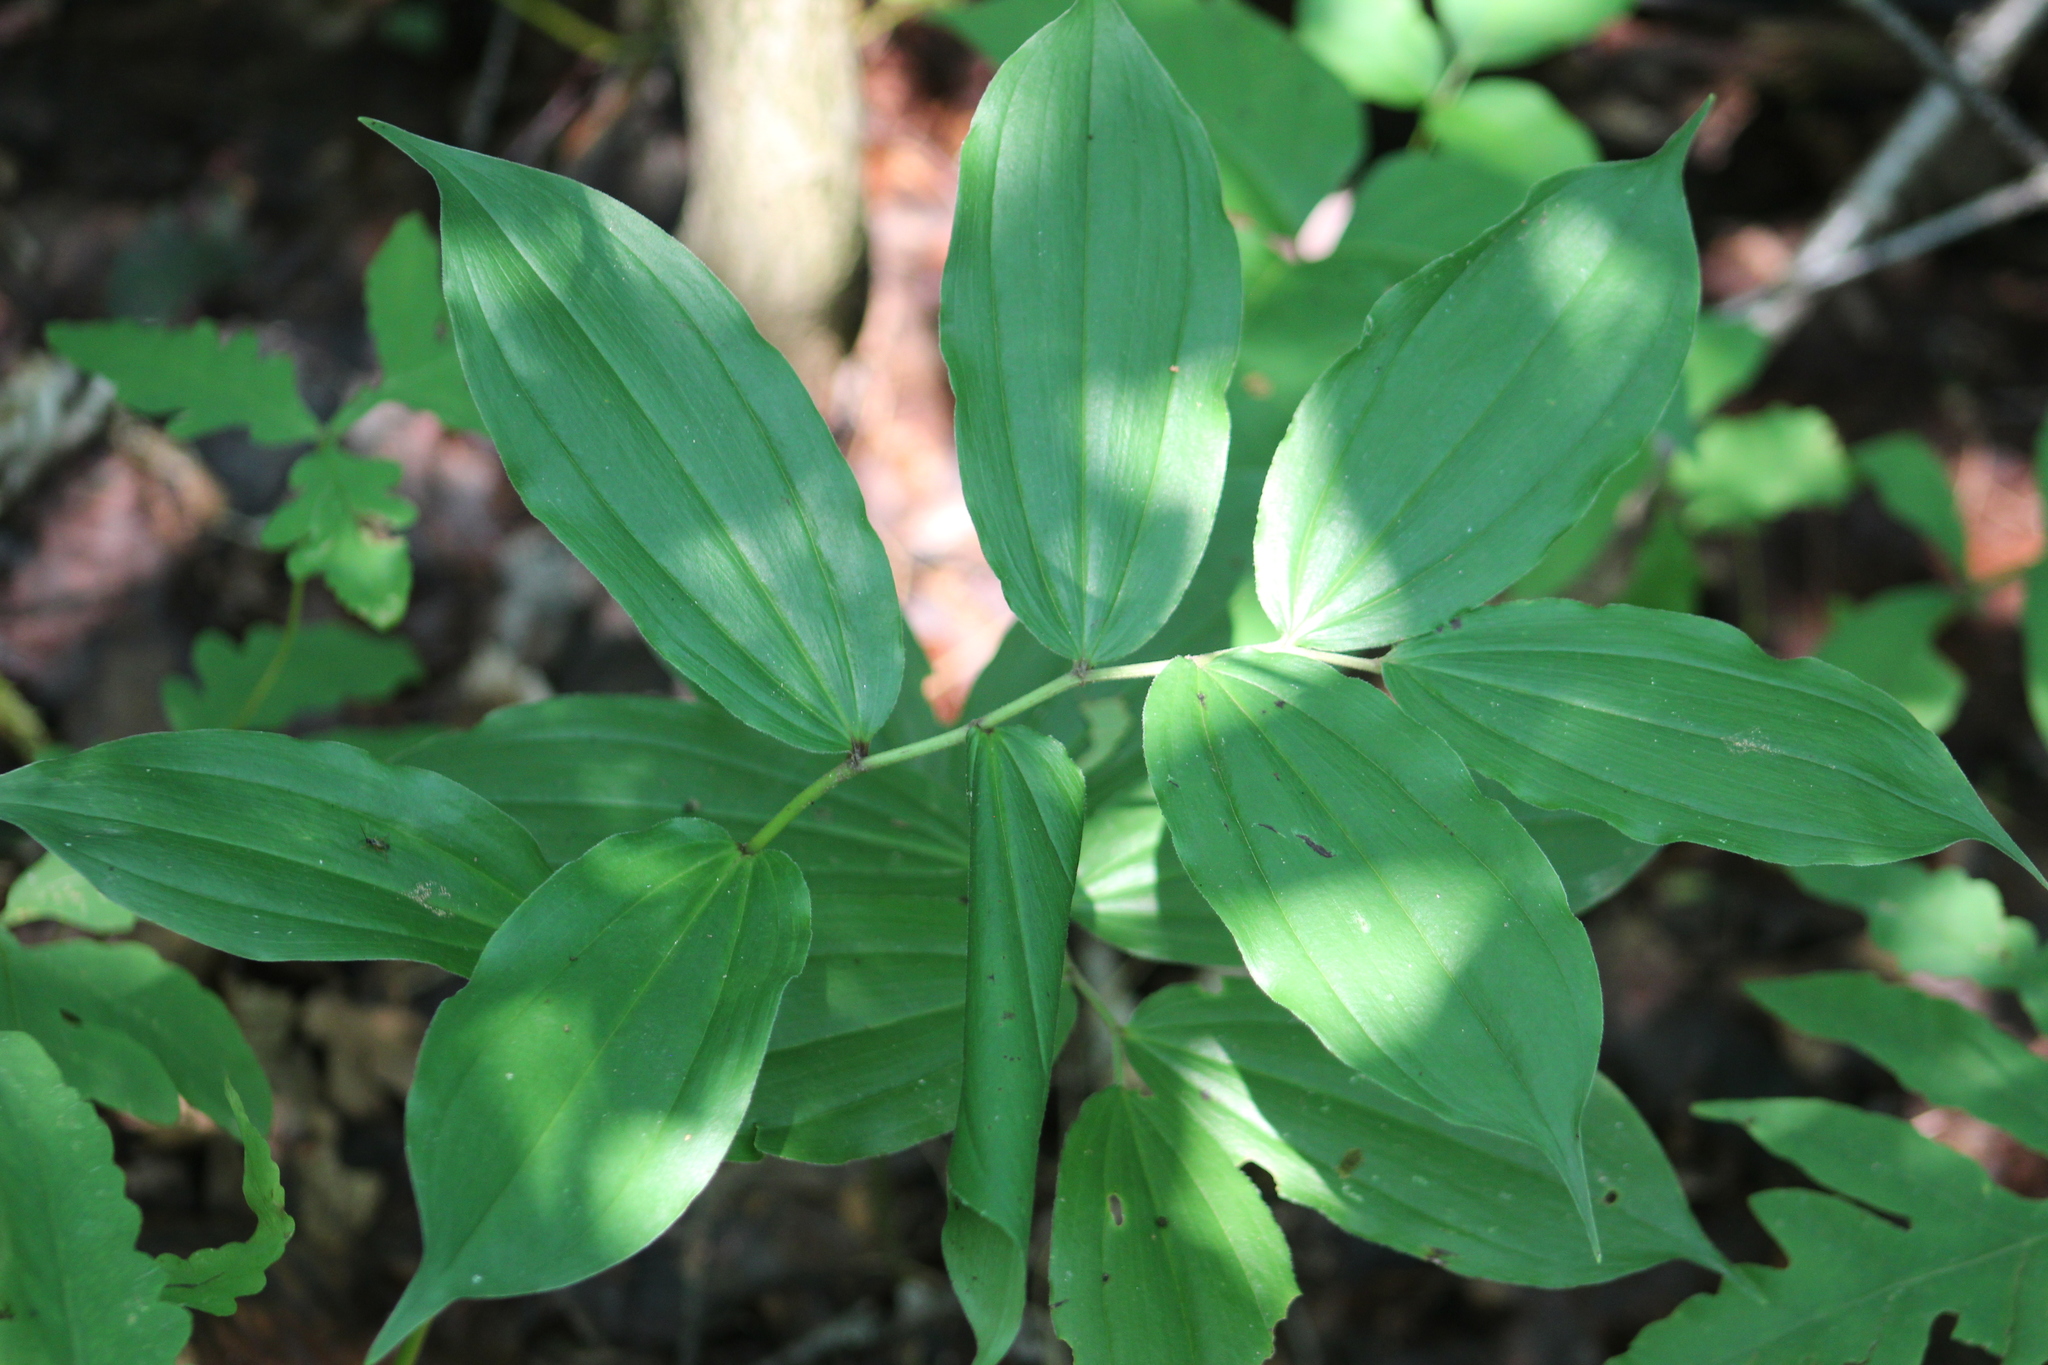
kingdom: Plantae
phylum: Tracheophyta
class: Liliopsida
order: Asparagales
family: Asparagaceae
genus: Maianthemum
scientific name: Maianthemum racemosum
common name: False spikenard
